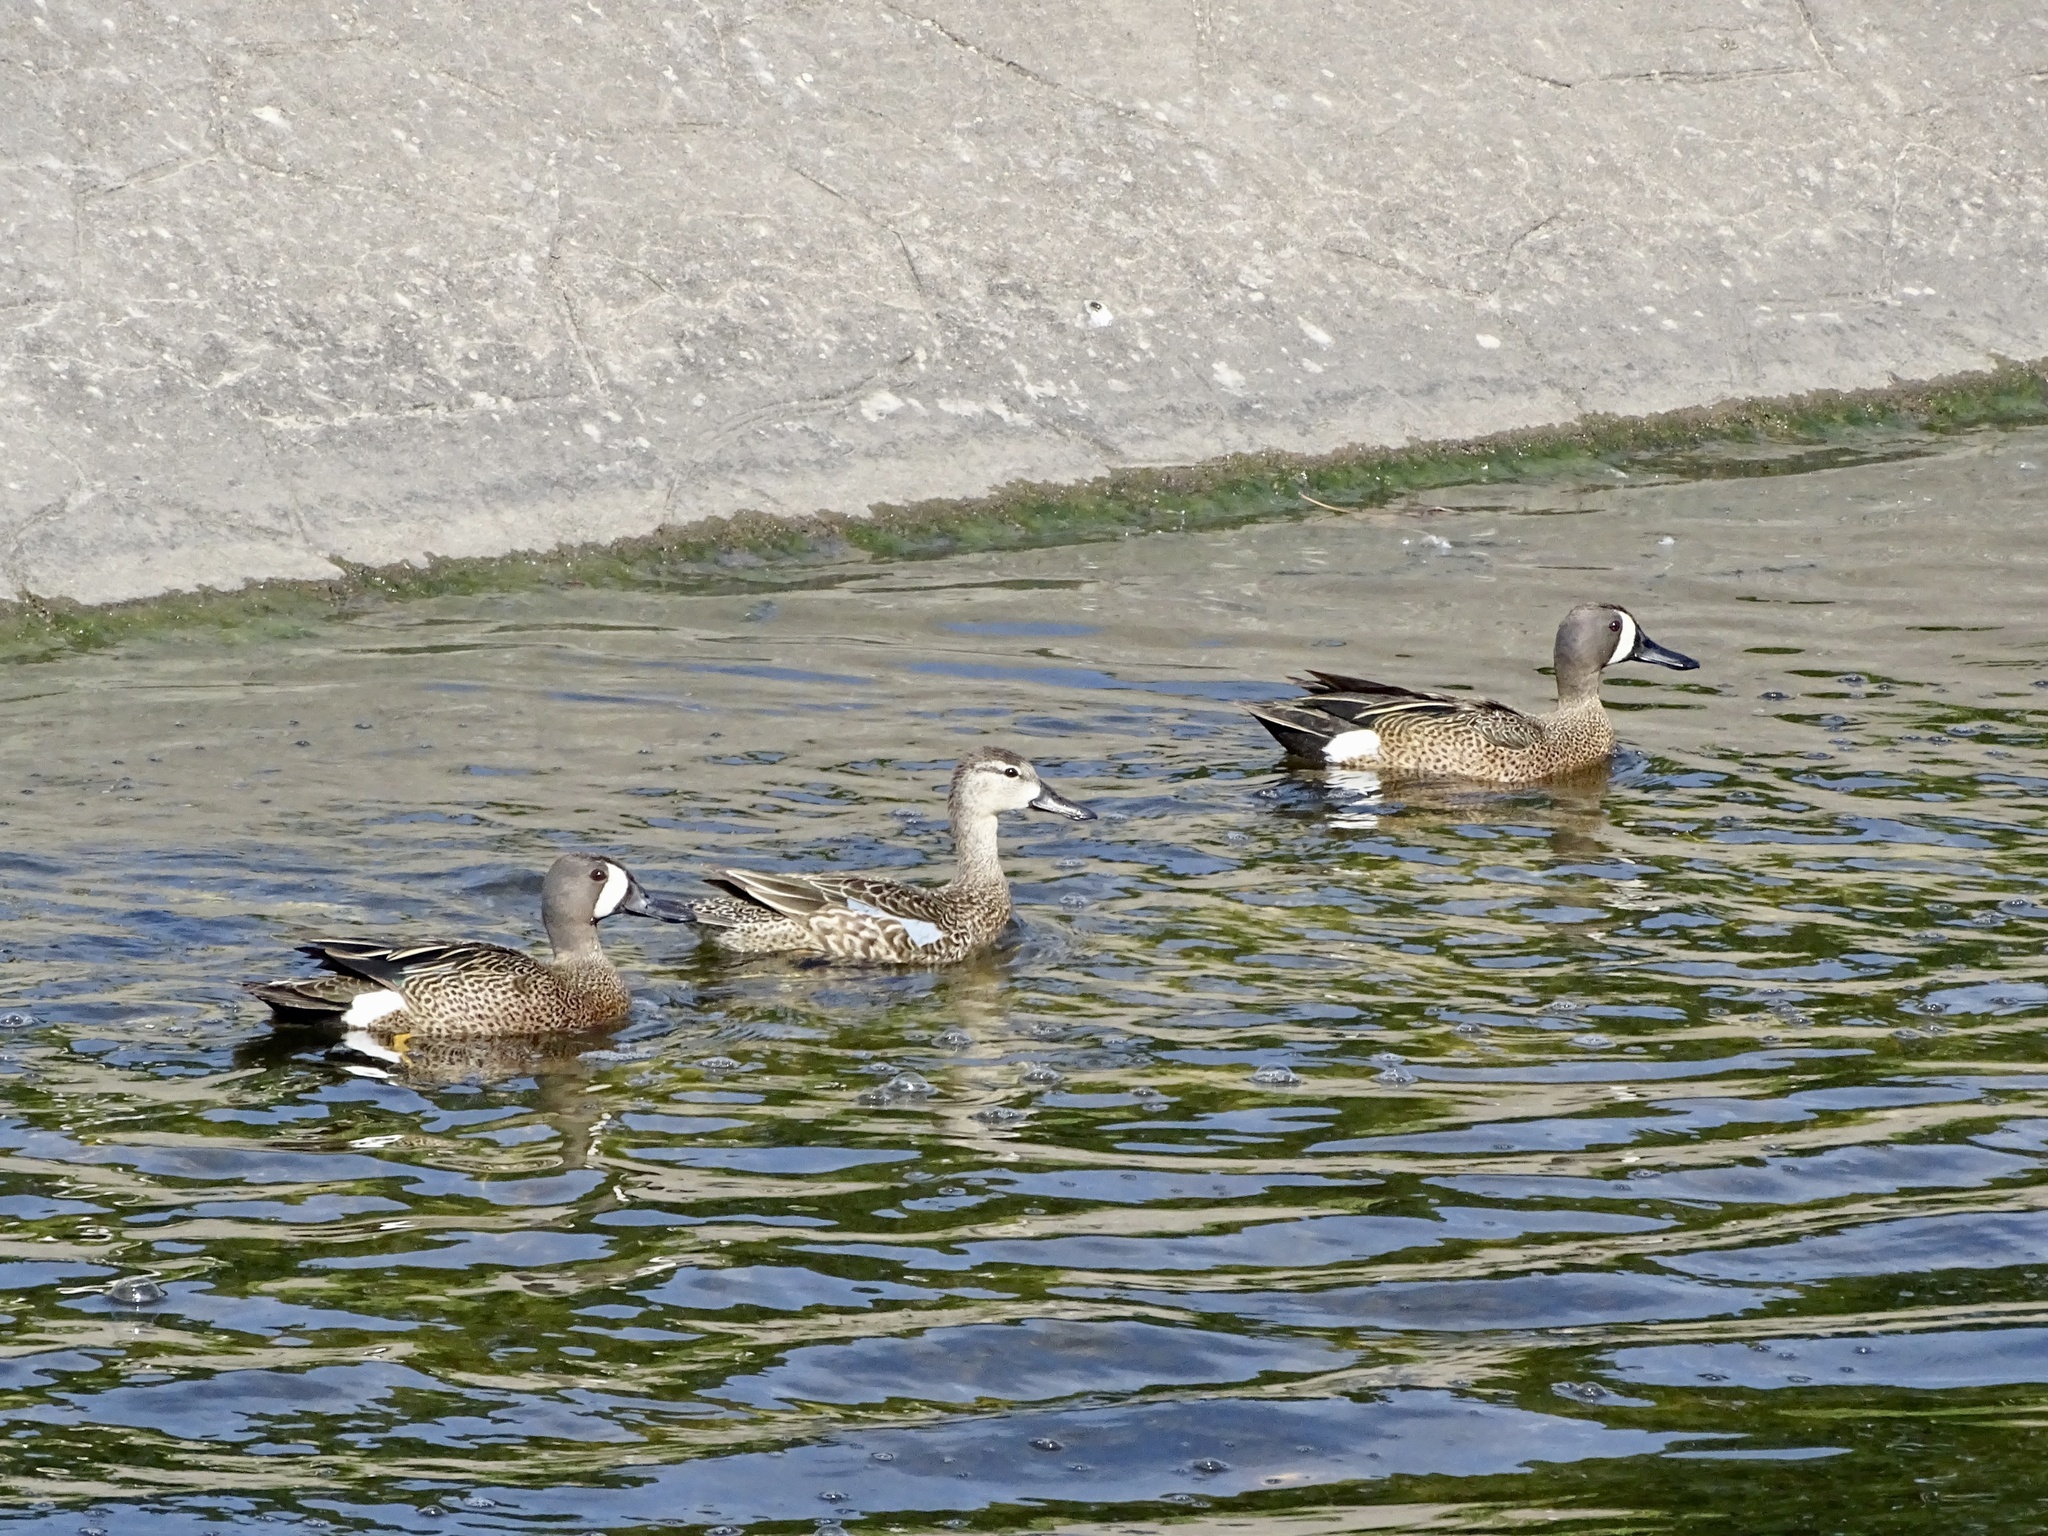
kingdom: Animalia
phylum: Chordata
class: Aves
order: Anseriformes
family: Anatidae
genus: Spatula
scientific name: Spatula discors
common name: Blue-winged teal
